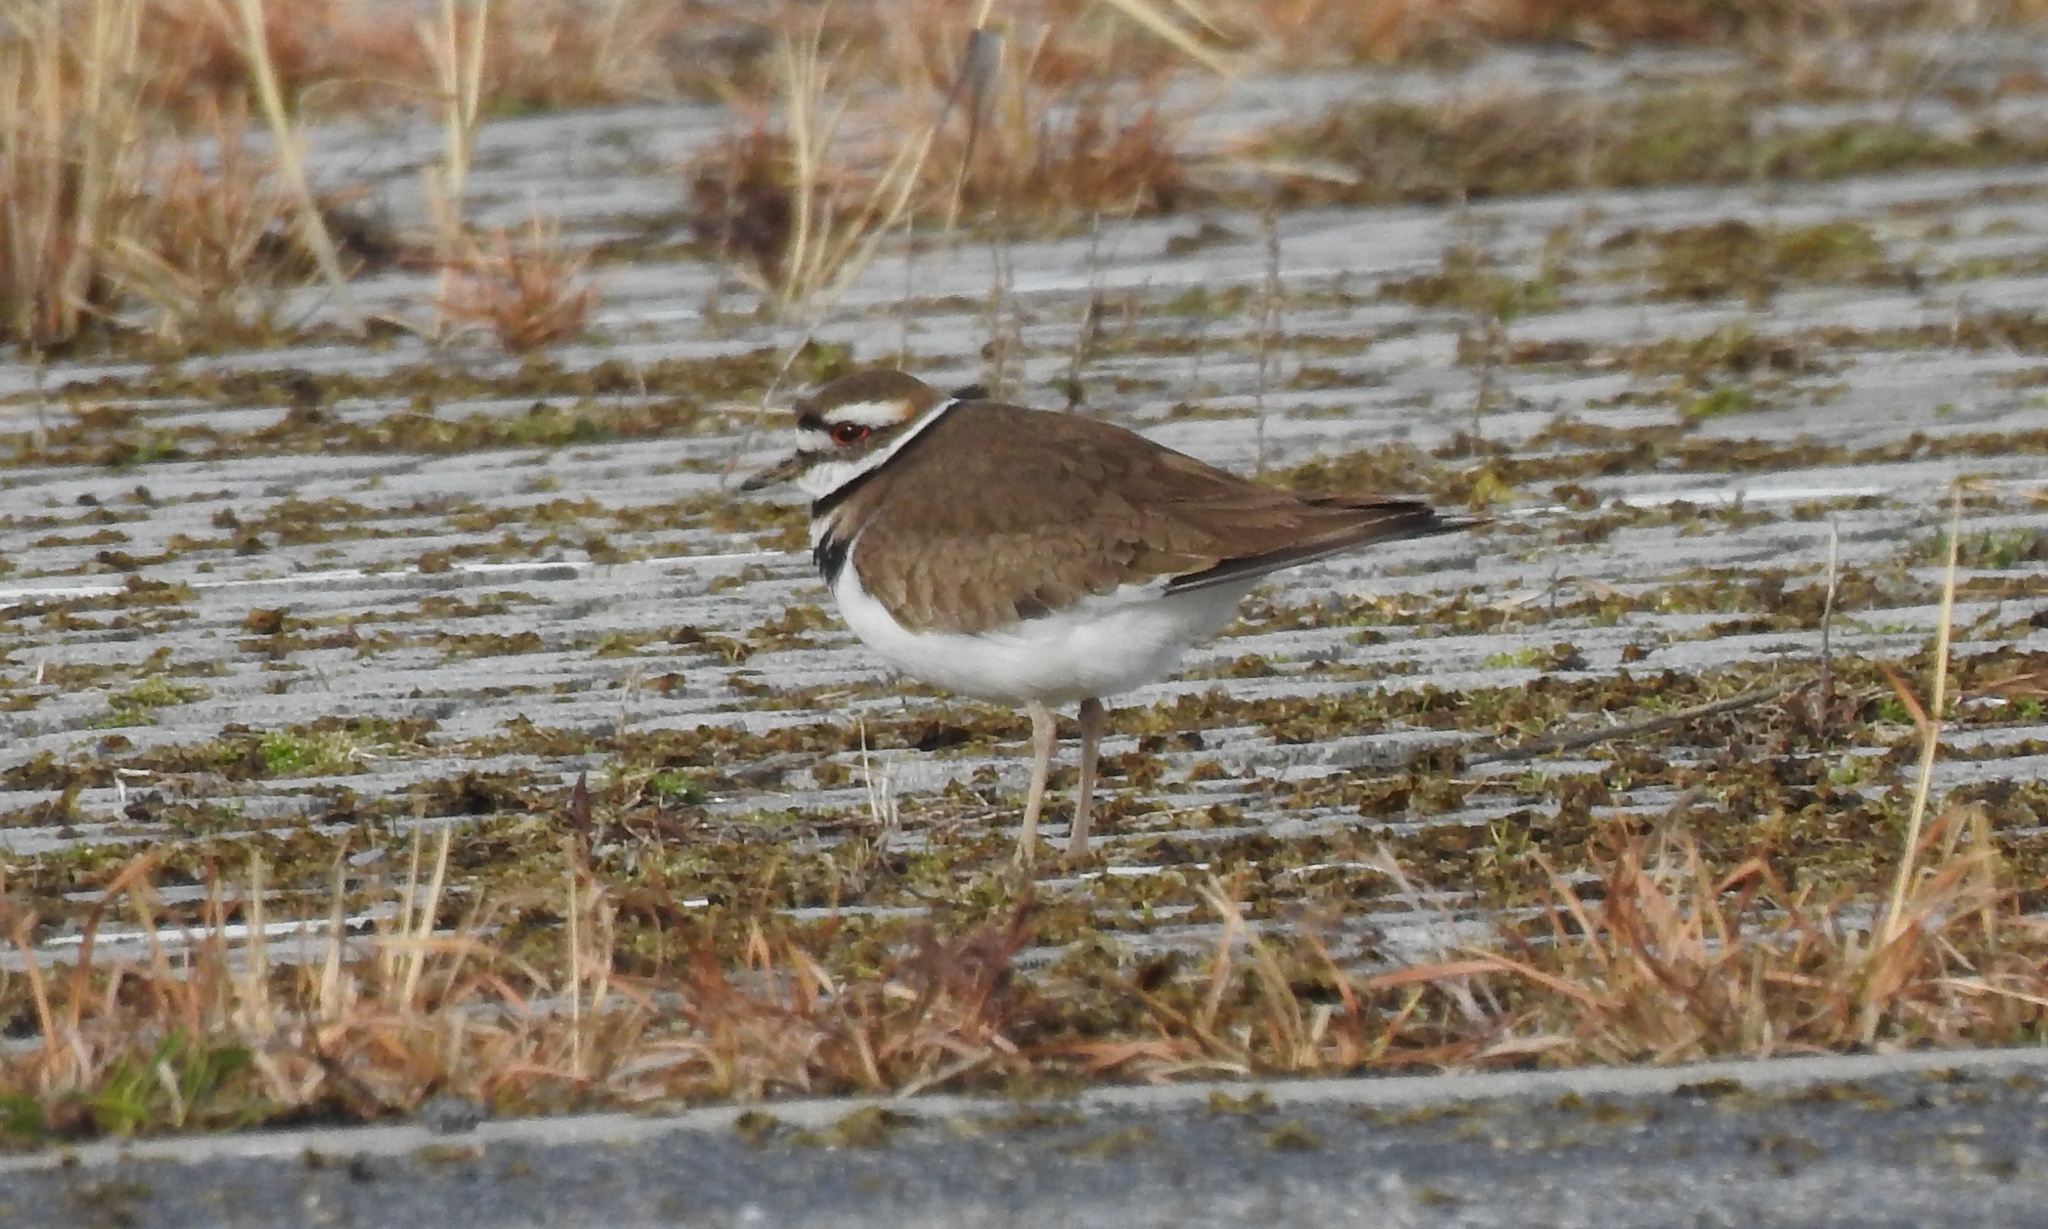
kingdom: Animalia
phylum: Chordata
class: Aves
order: Charadriiformes
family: Charadriidae
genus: Charadrius
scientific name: Charadrius vociferus
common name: Killdeer
